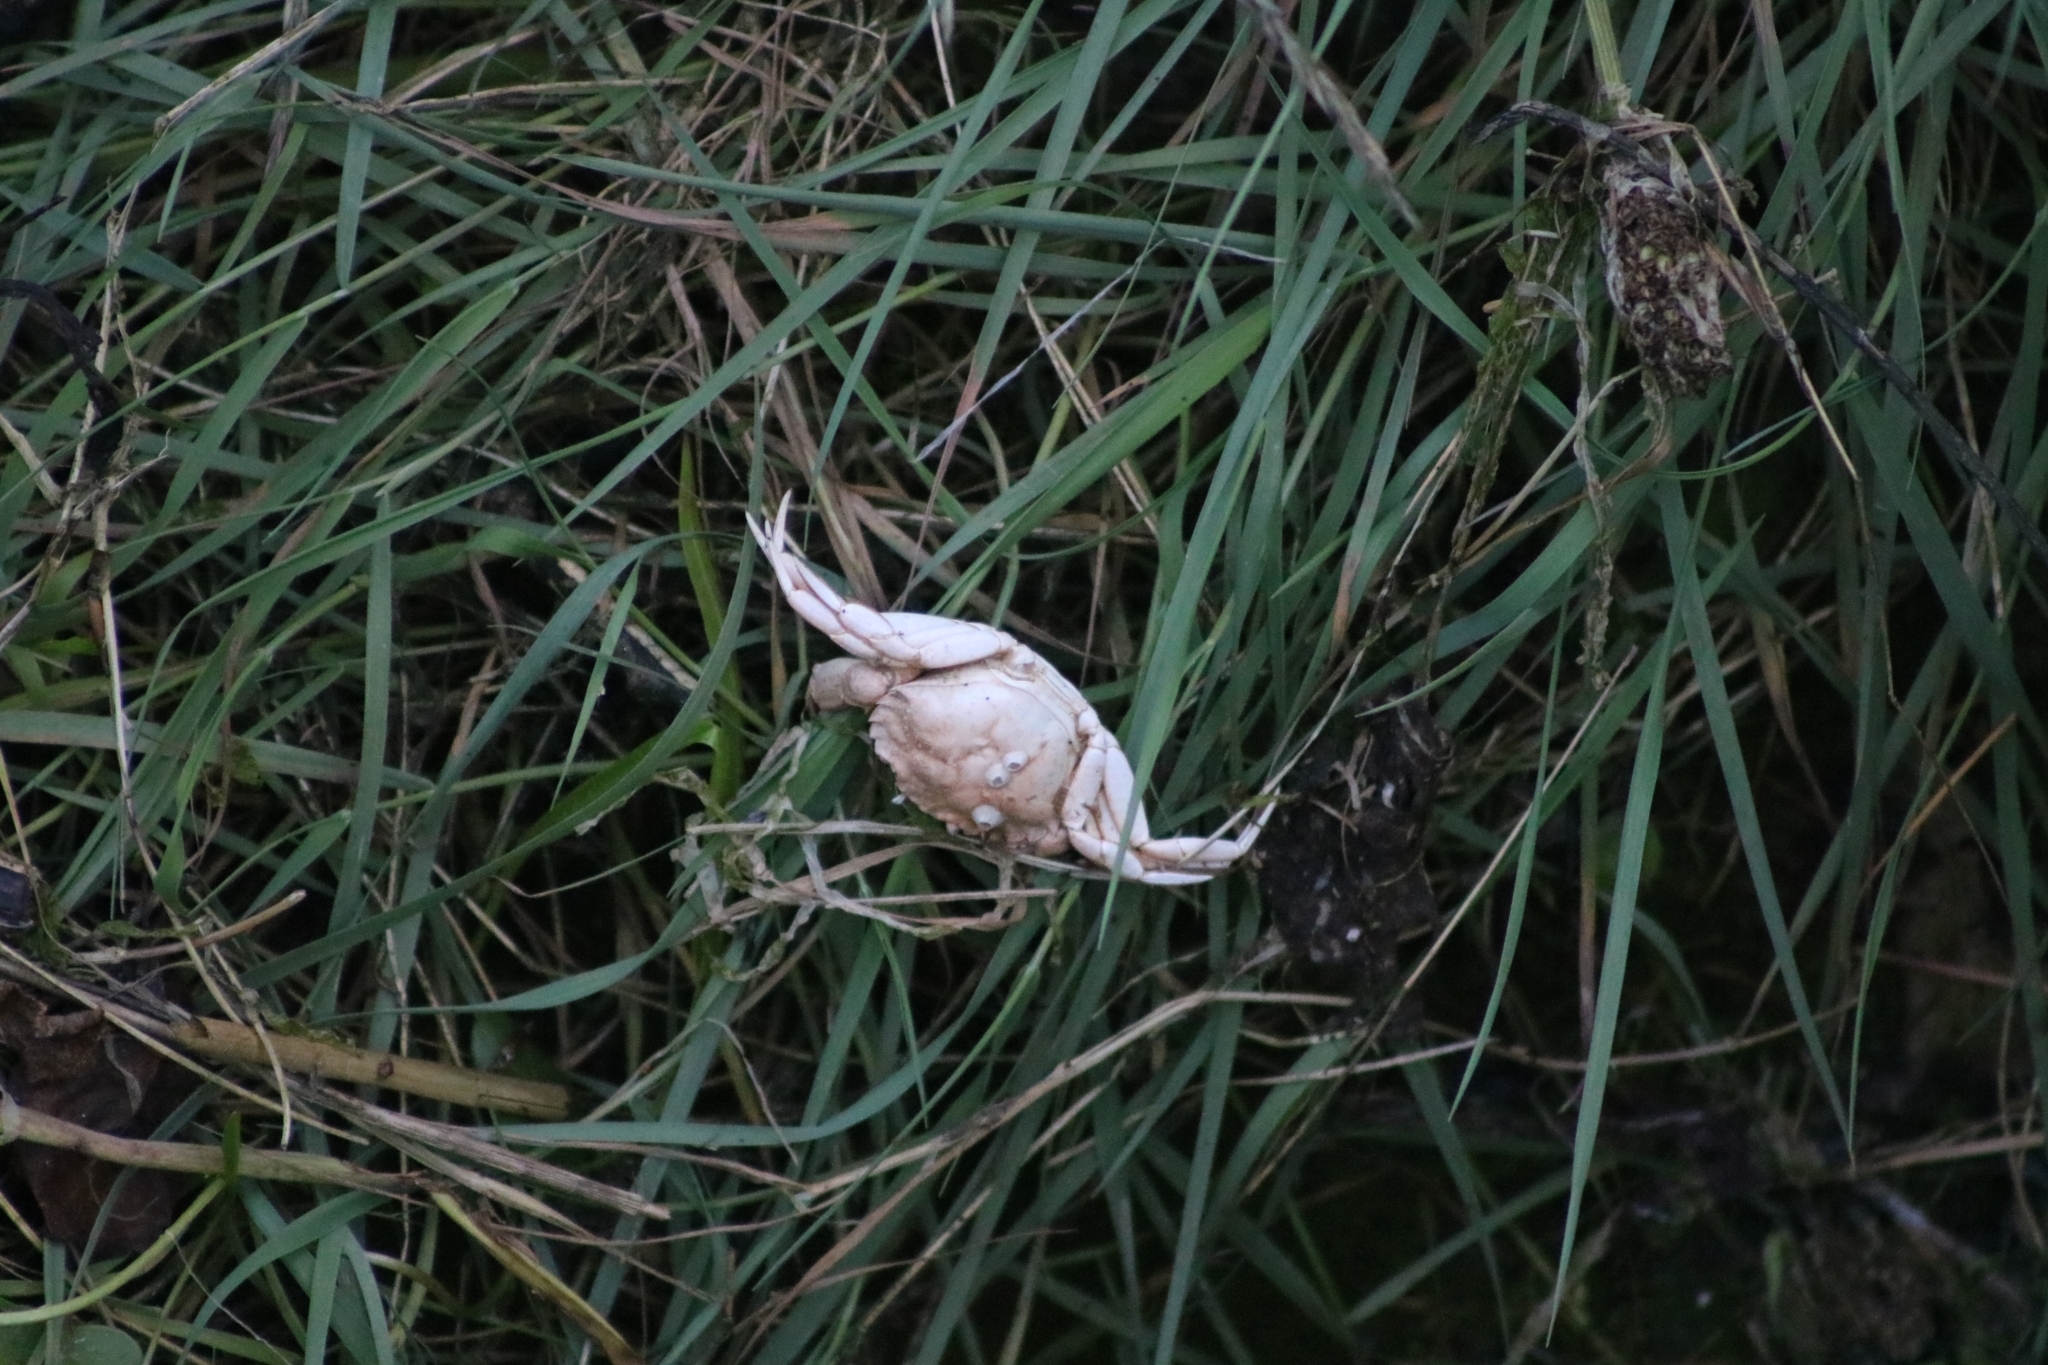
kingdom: Animalia
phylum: Arthropoda
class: Malacostraca
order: Decapoda
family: Carcinidae
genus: Carcinus
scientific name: Carcinus maenas
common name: European green crab
